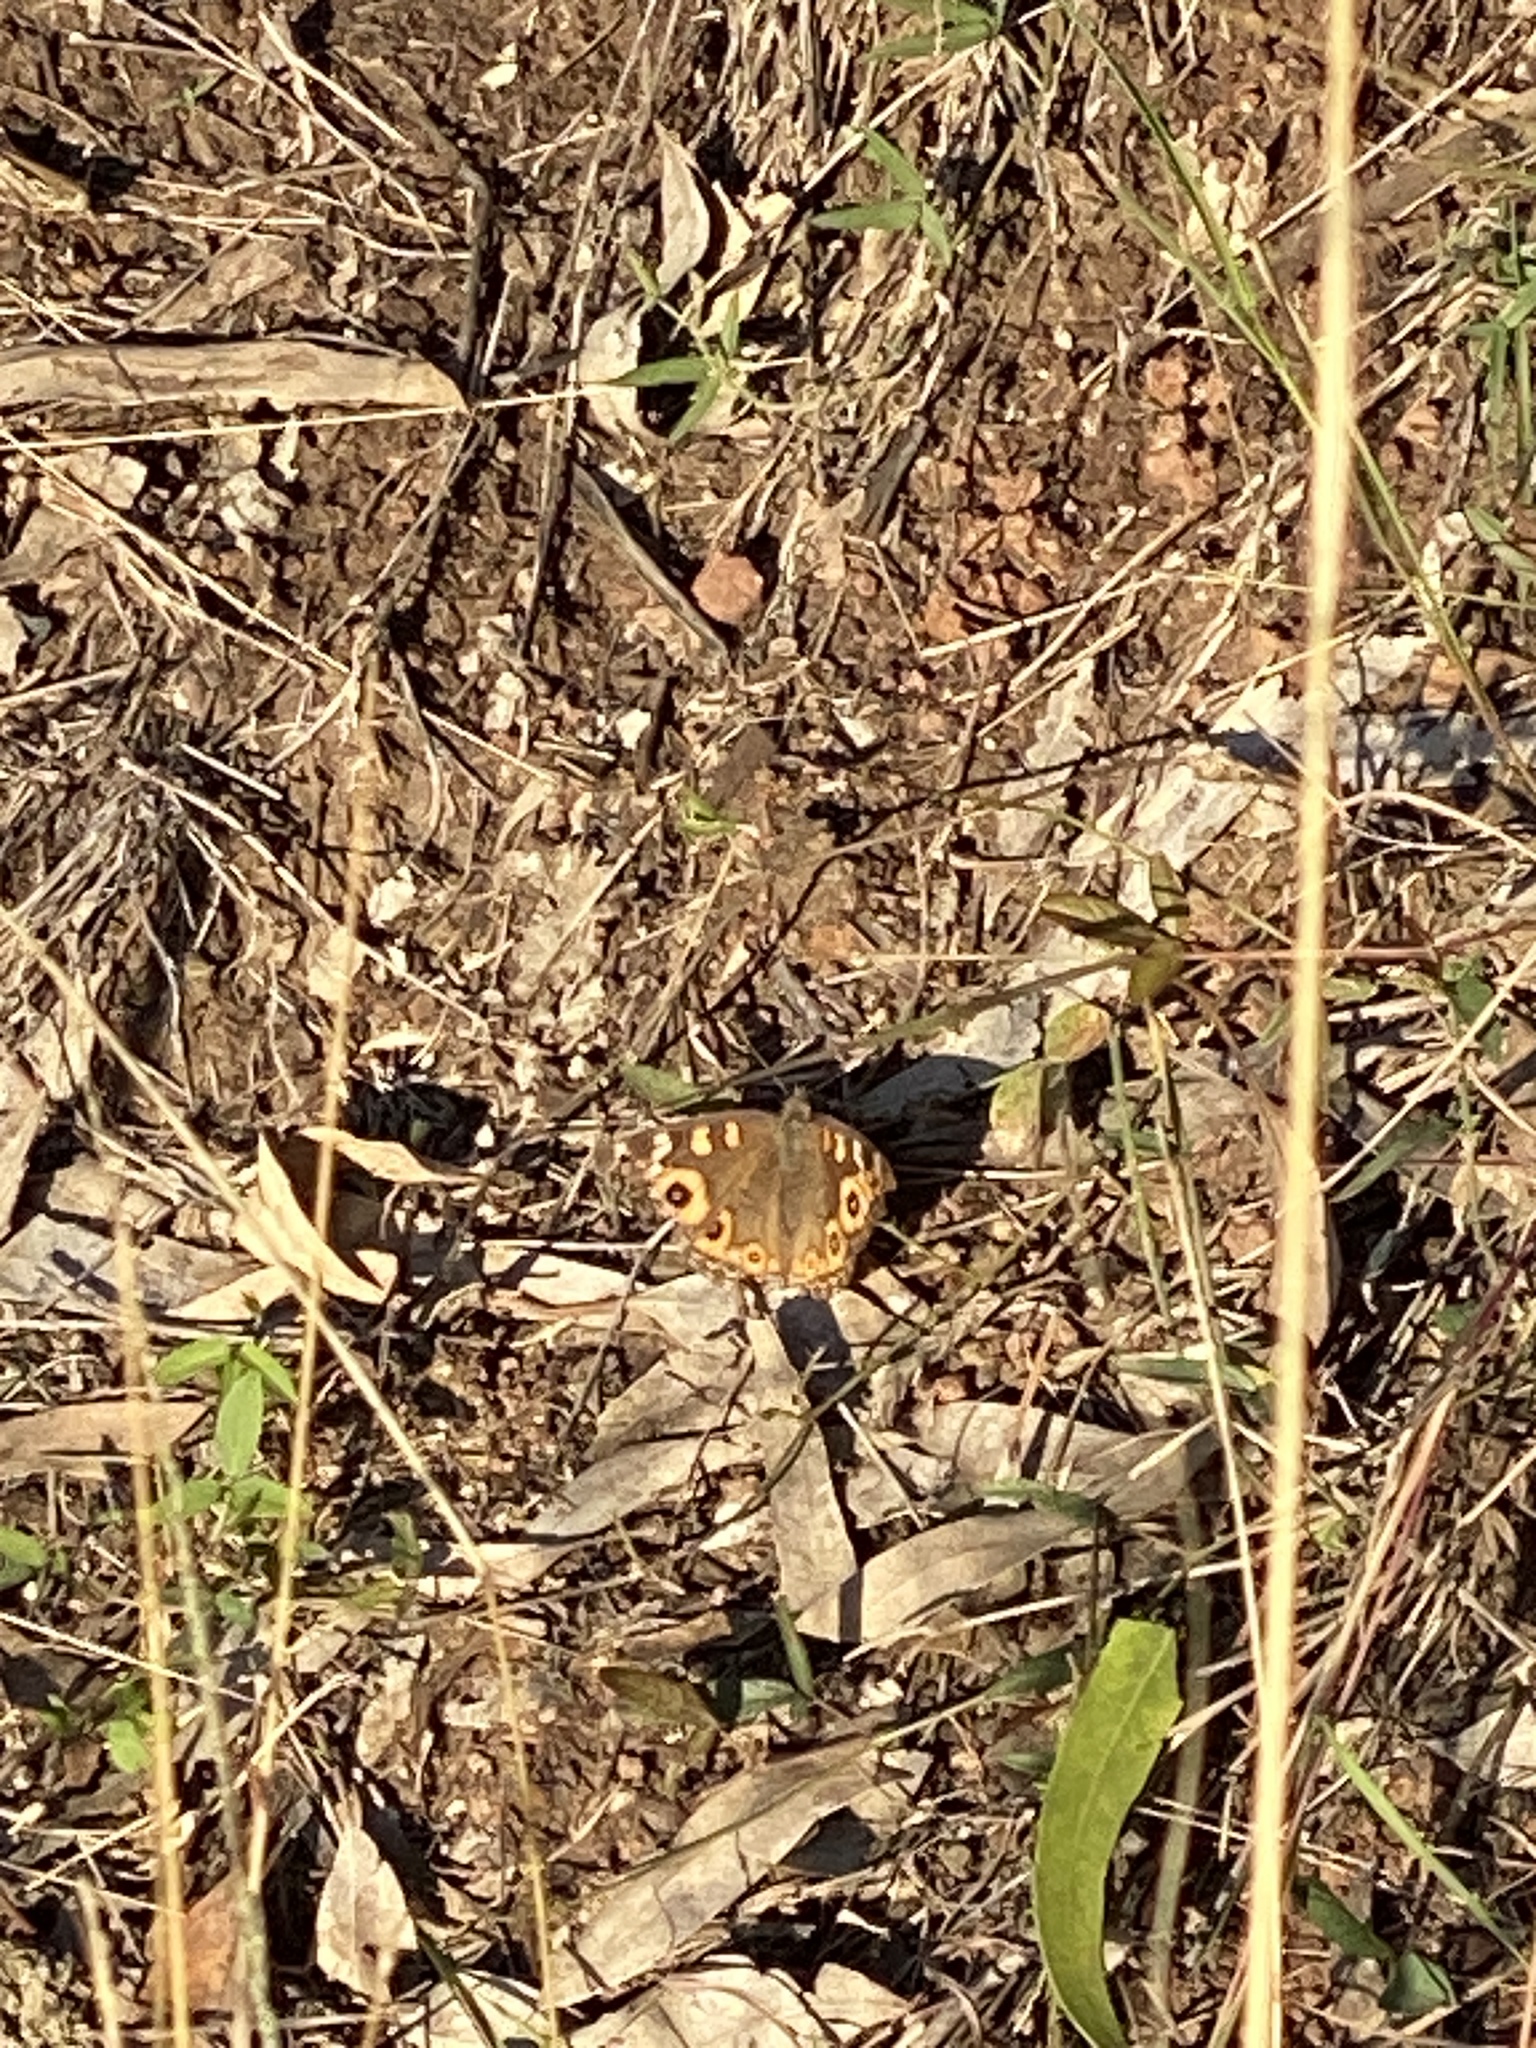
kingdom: Animalia
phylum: Arthropoda
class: Insecta
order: Lepidoptera
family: Nymphalidae
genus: Junonia
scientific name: Junonia villida
